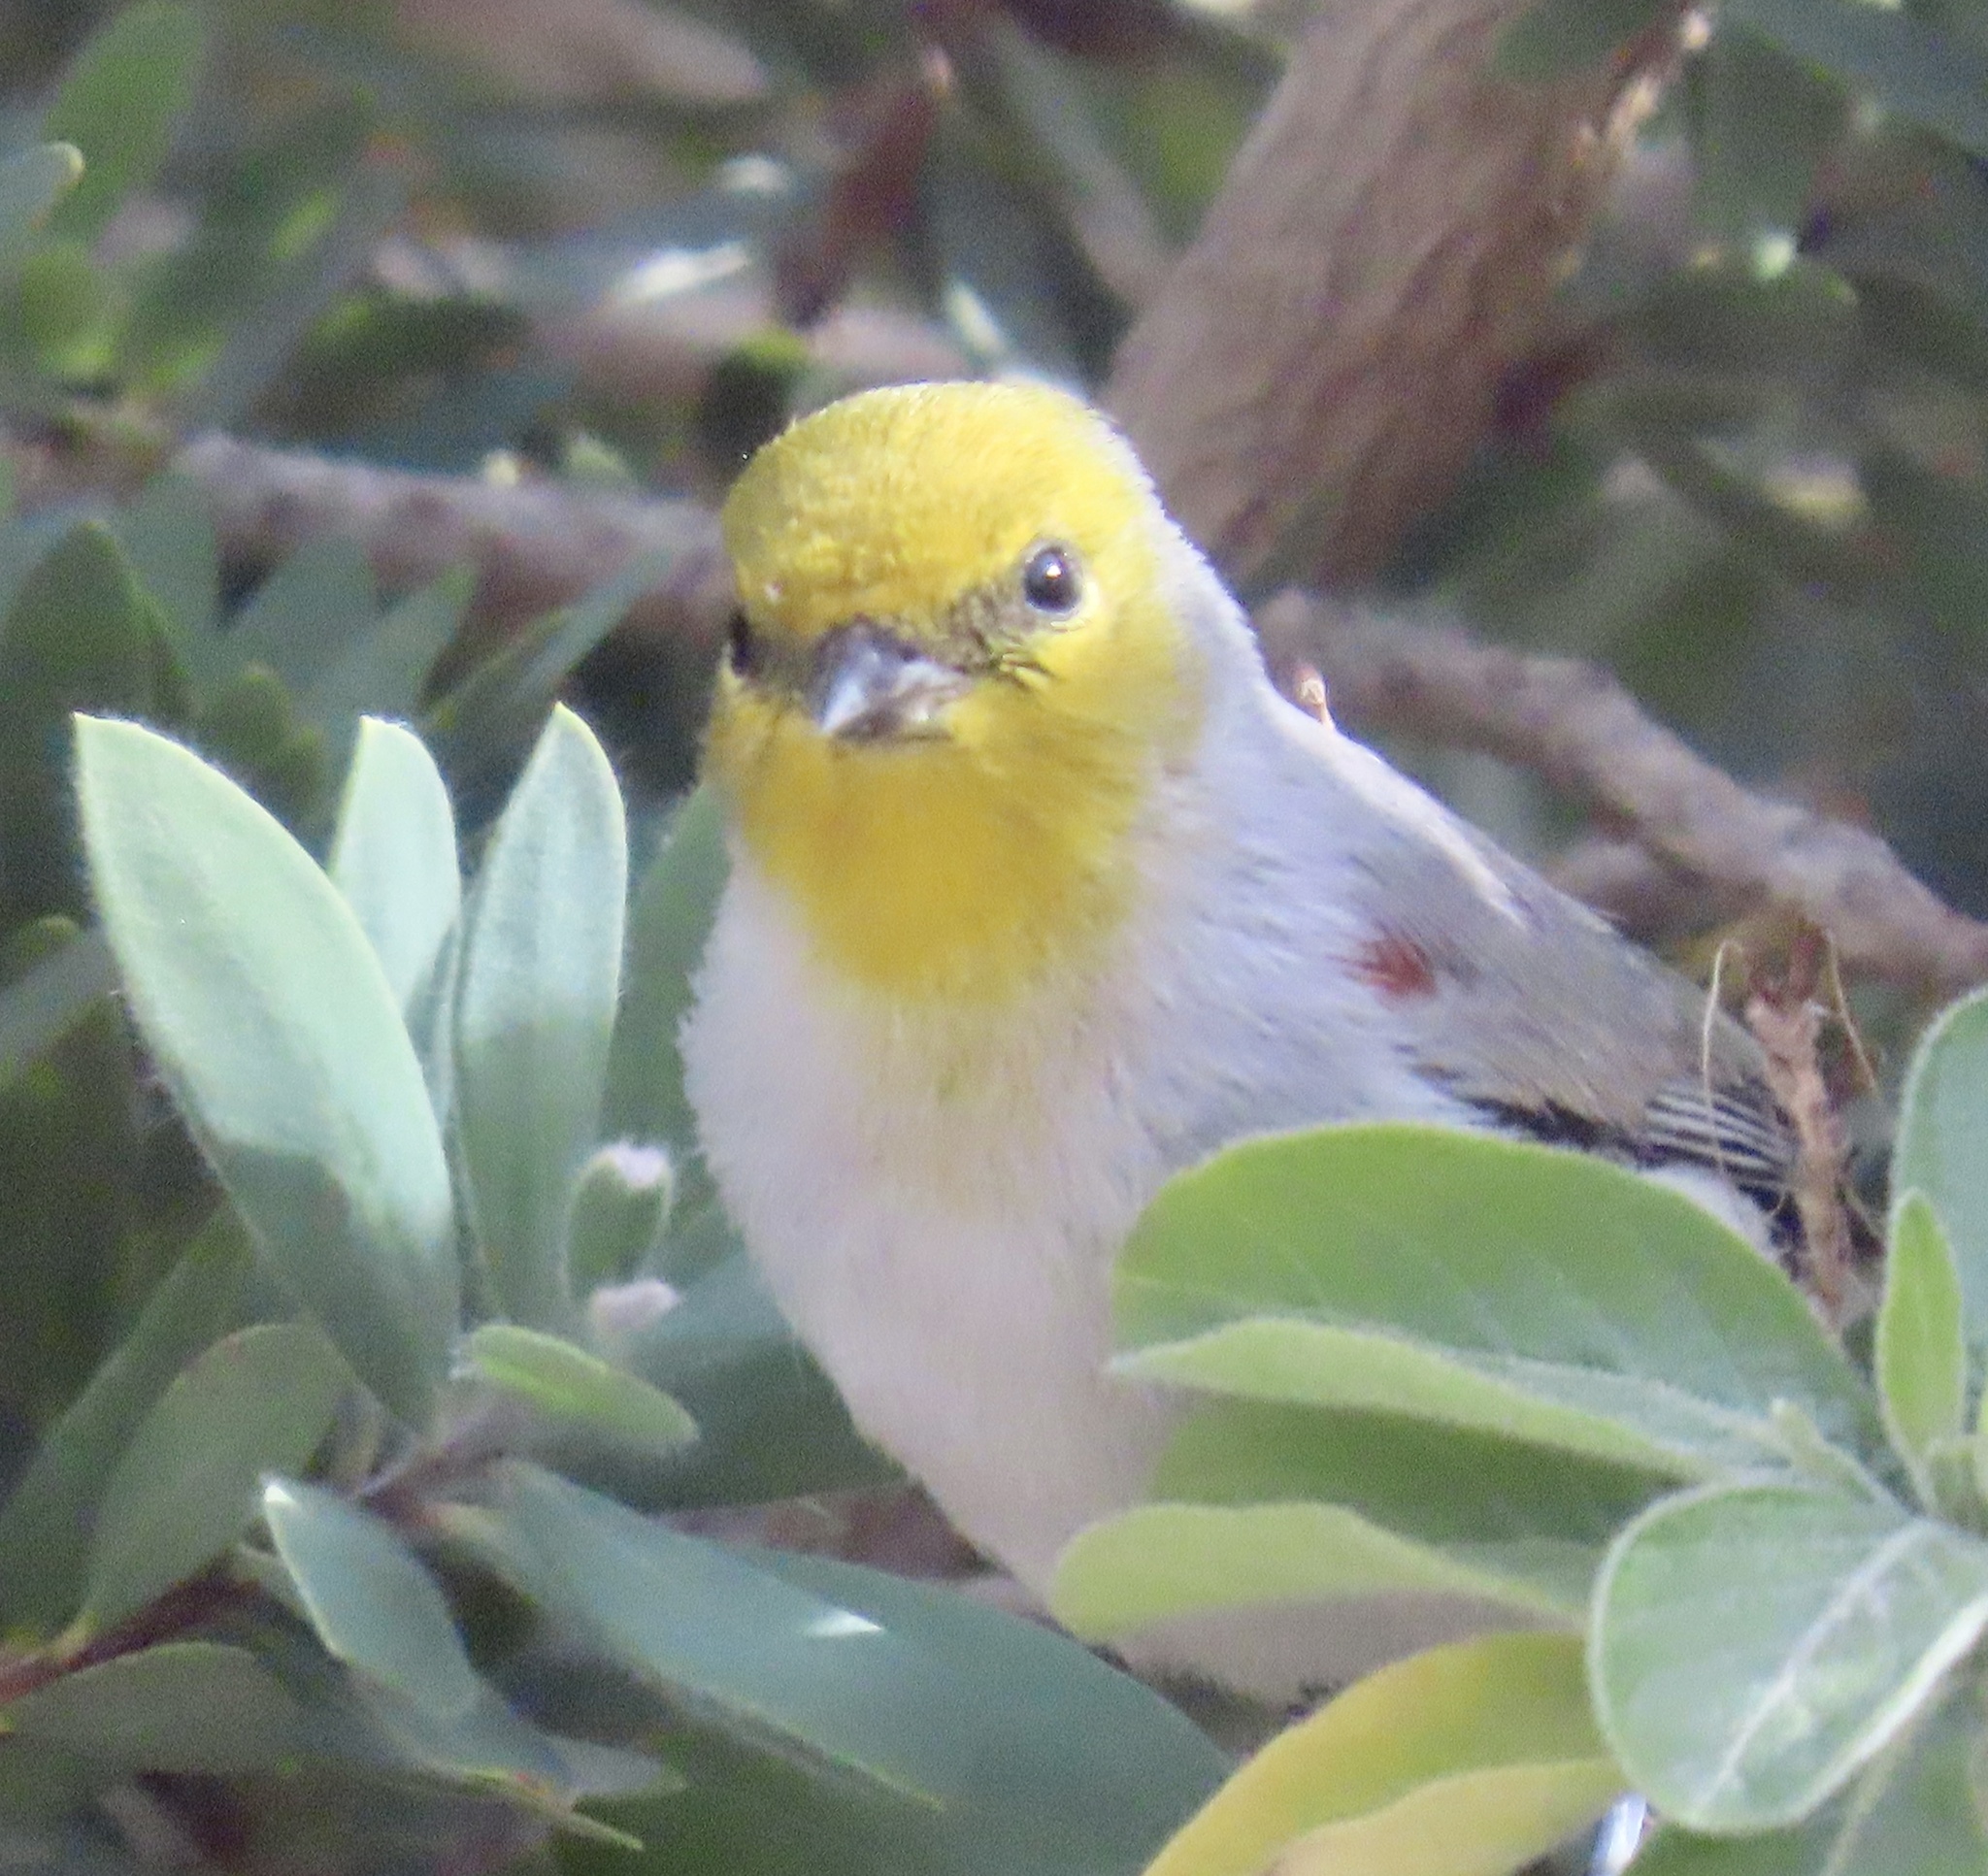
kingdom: Animalia
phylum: Chordata
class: Aves
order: Passeriformes
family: Remizidae
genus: Auriparus
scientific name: Auriparus flaviceps
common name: Verdin
